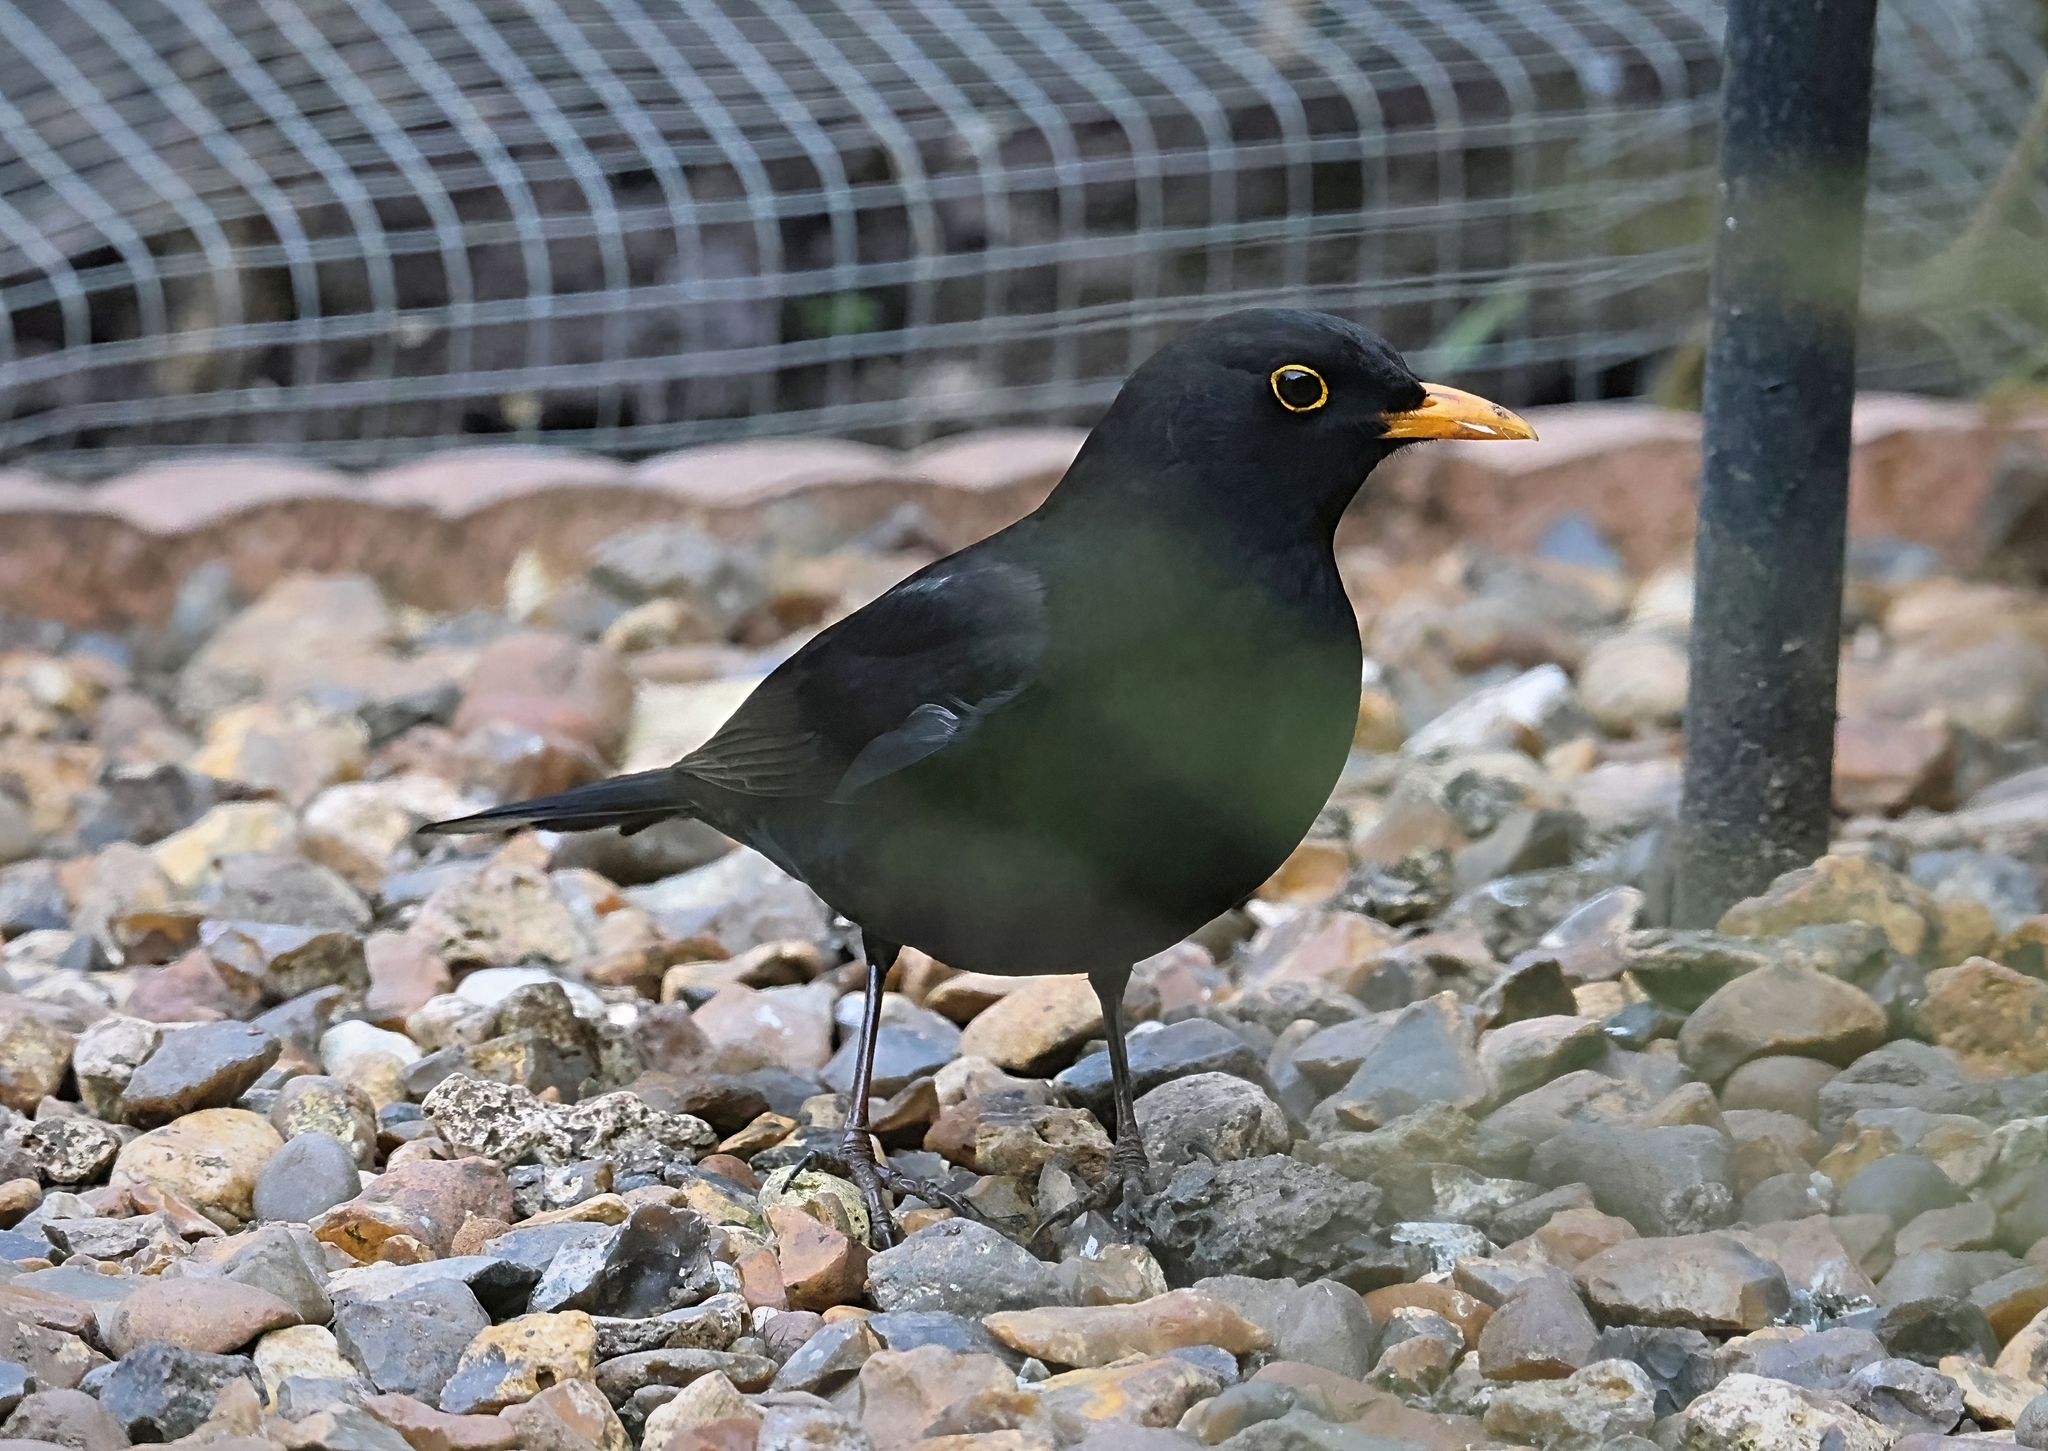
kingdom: Animalia
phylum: Chordata
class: Aves
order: Passeriformes
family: Turdidae
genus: Turdus
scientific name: Turdus merula
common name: Common blackbird
